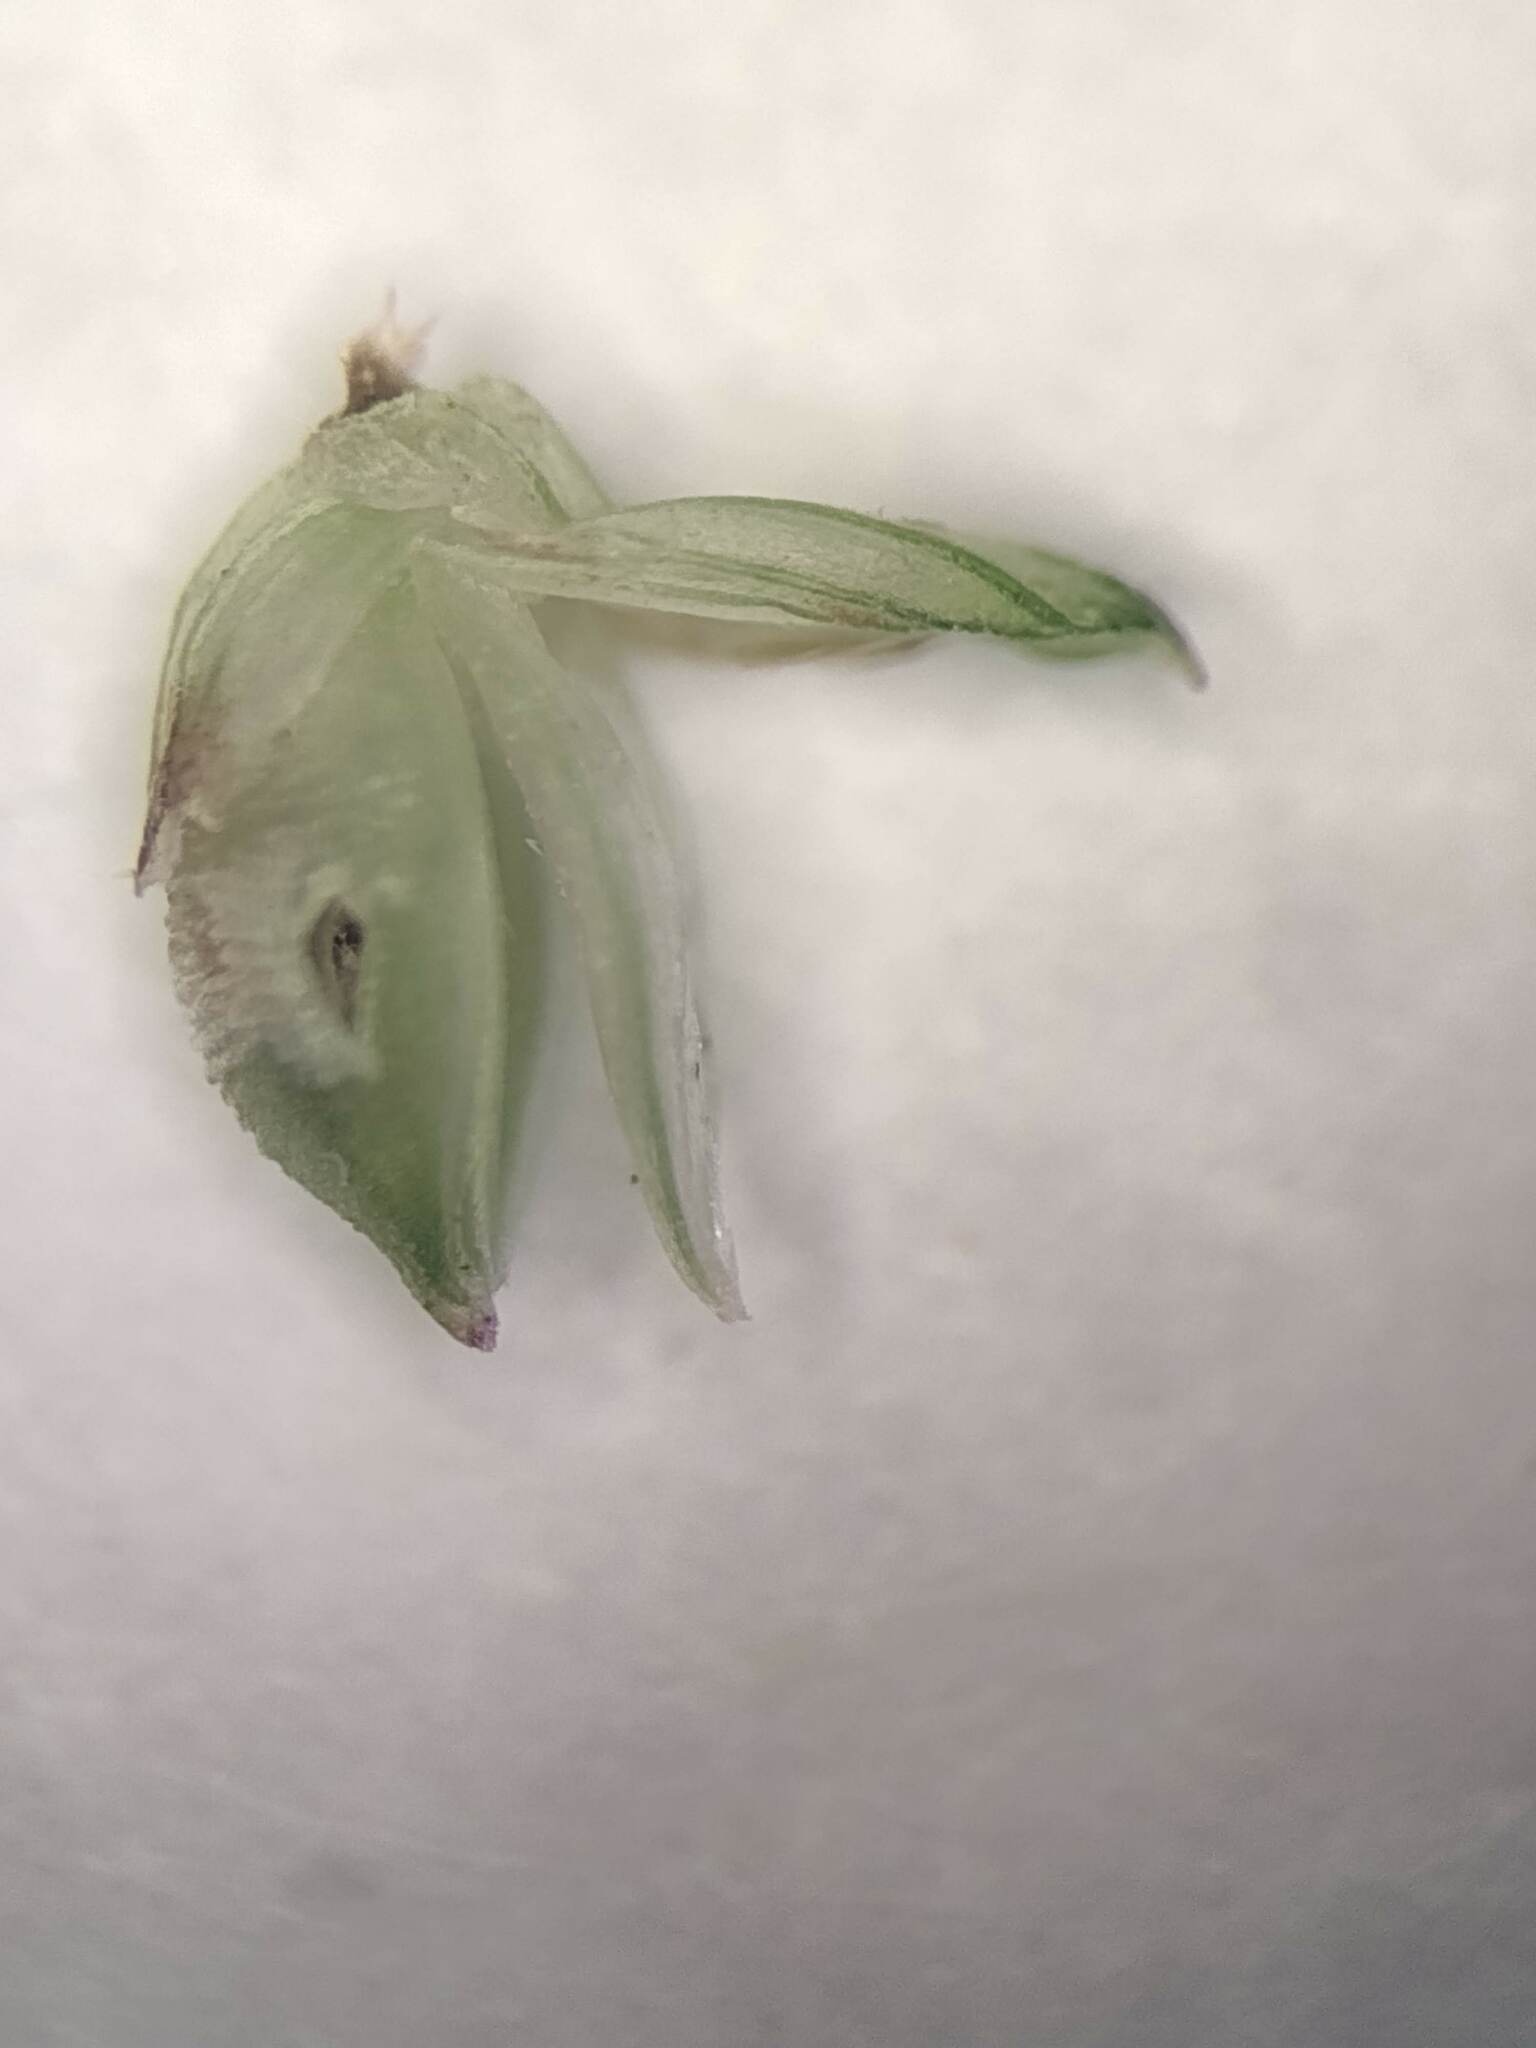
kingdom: Plantae
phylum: Tracheophyta
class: Liliopsida
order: Poales
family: Poaceae
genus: Setaria
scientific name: Setaria parviflora
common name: Knotroot bristle-grass
